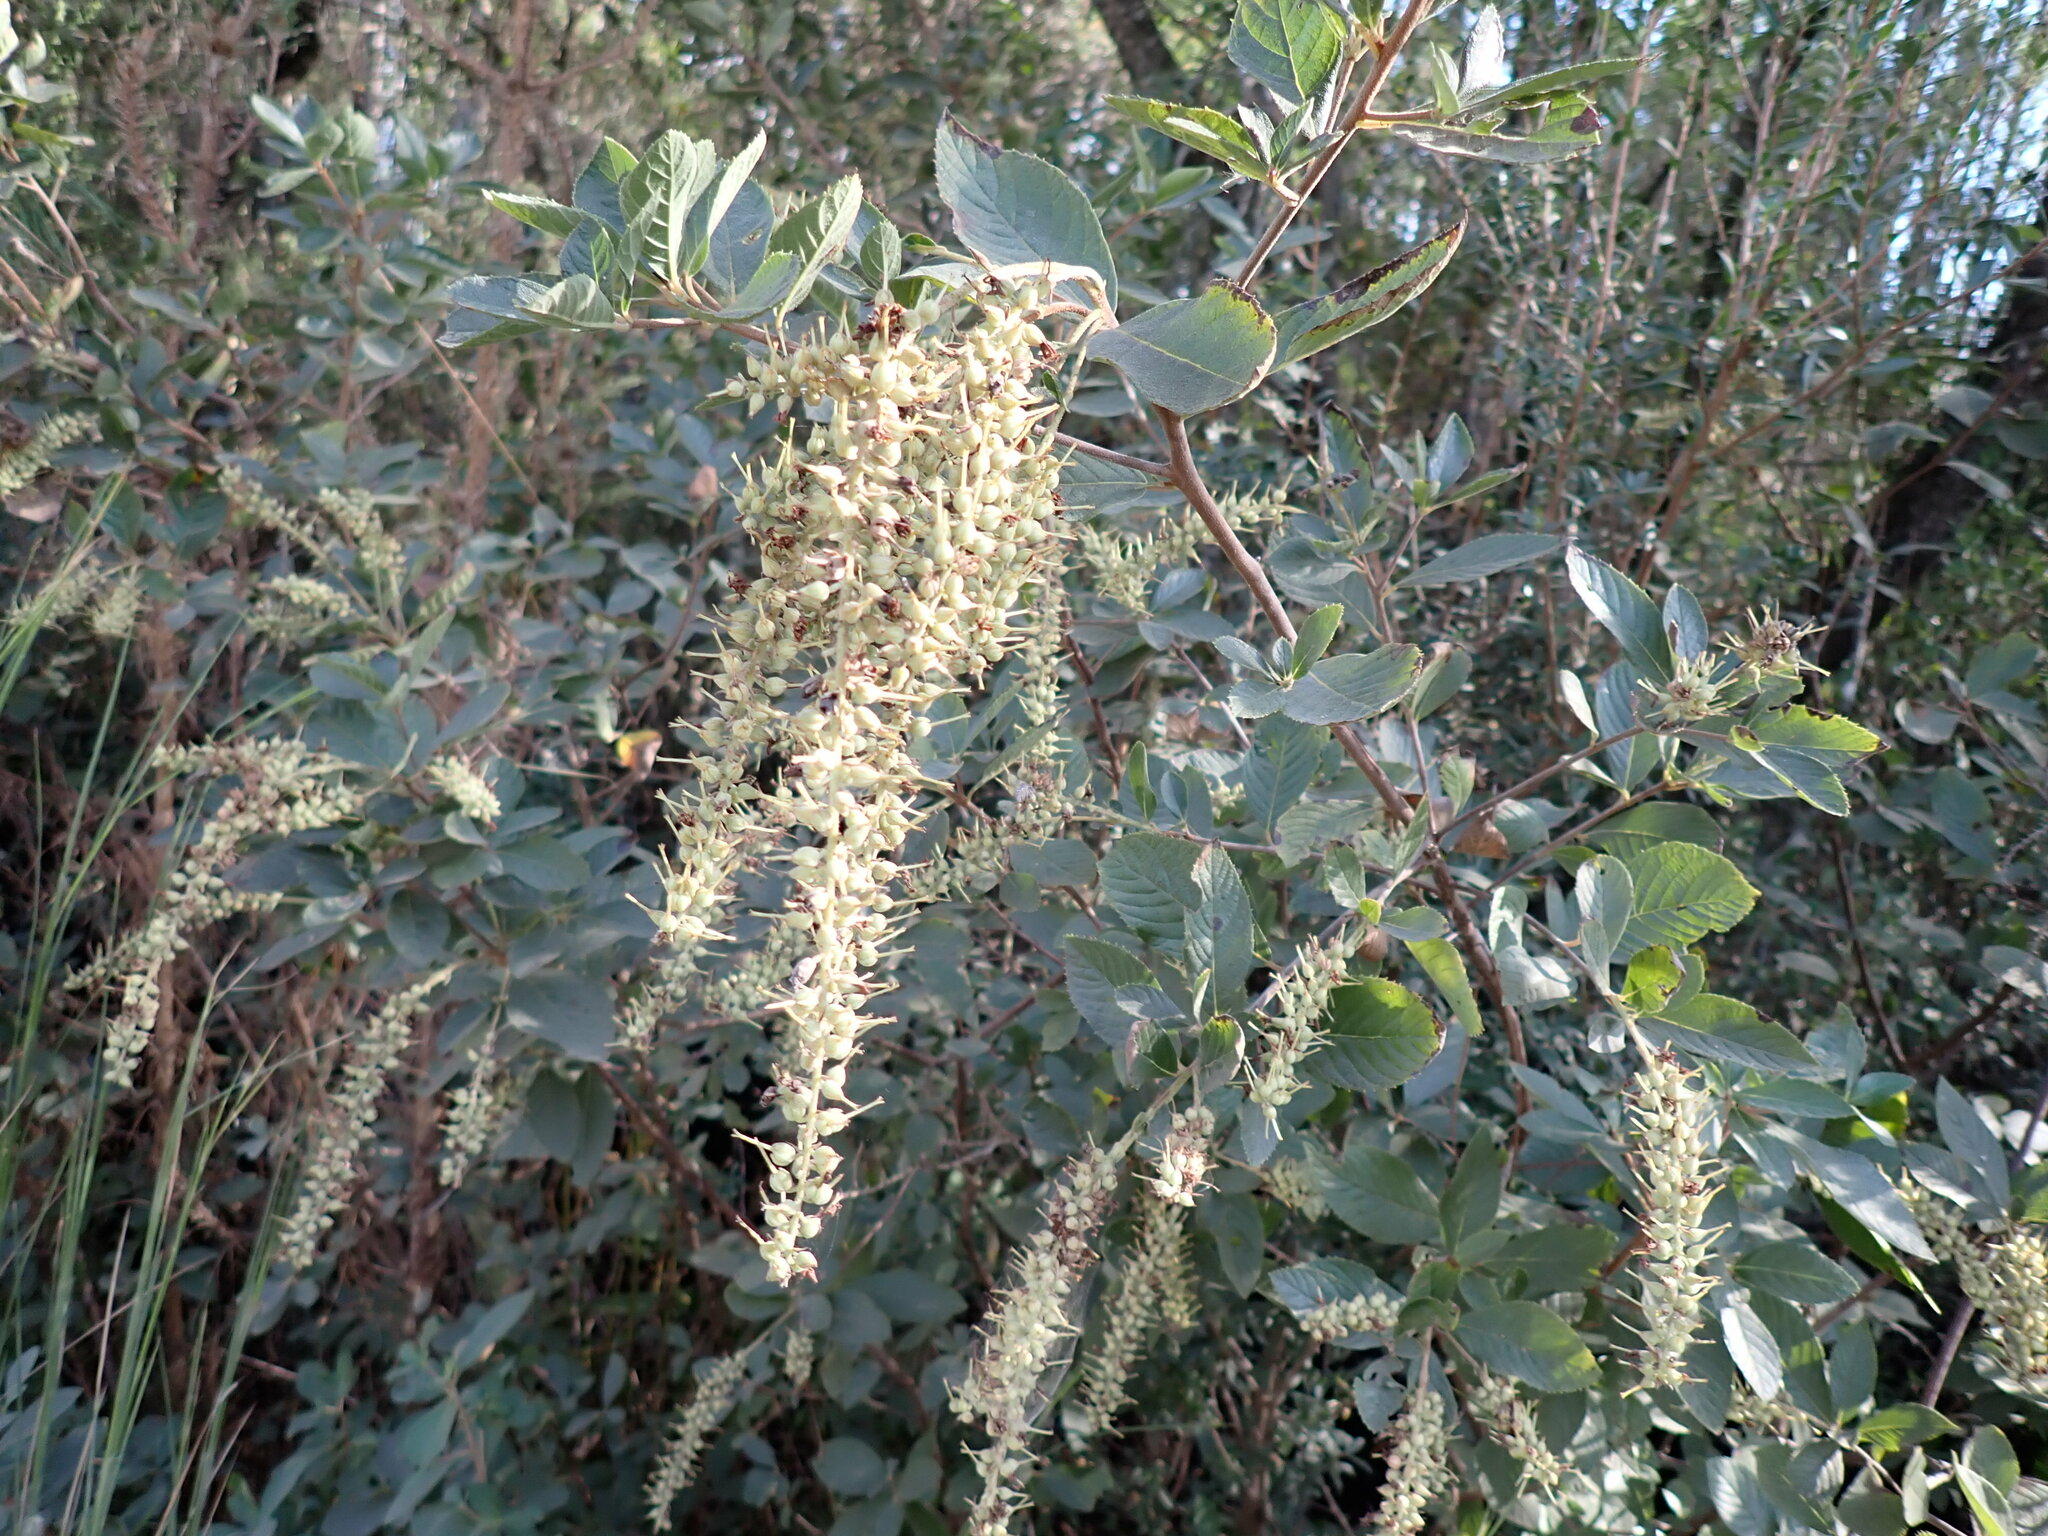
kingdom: Plantae
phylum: Tracheophyta
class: Magnoliopsida
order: Ericales
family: Clethraceae
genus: Clethra
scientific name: Clethra tomentosa
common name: Downy sweet pepperbush
